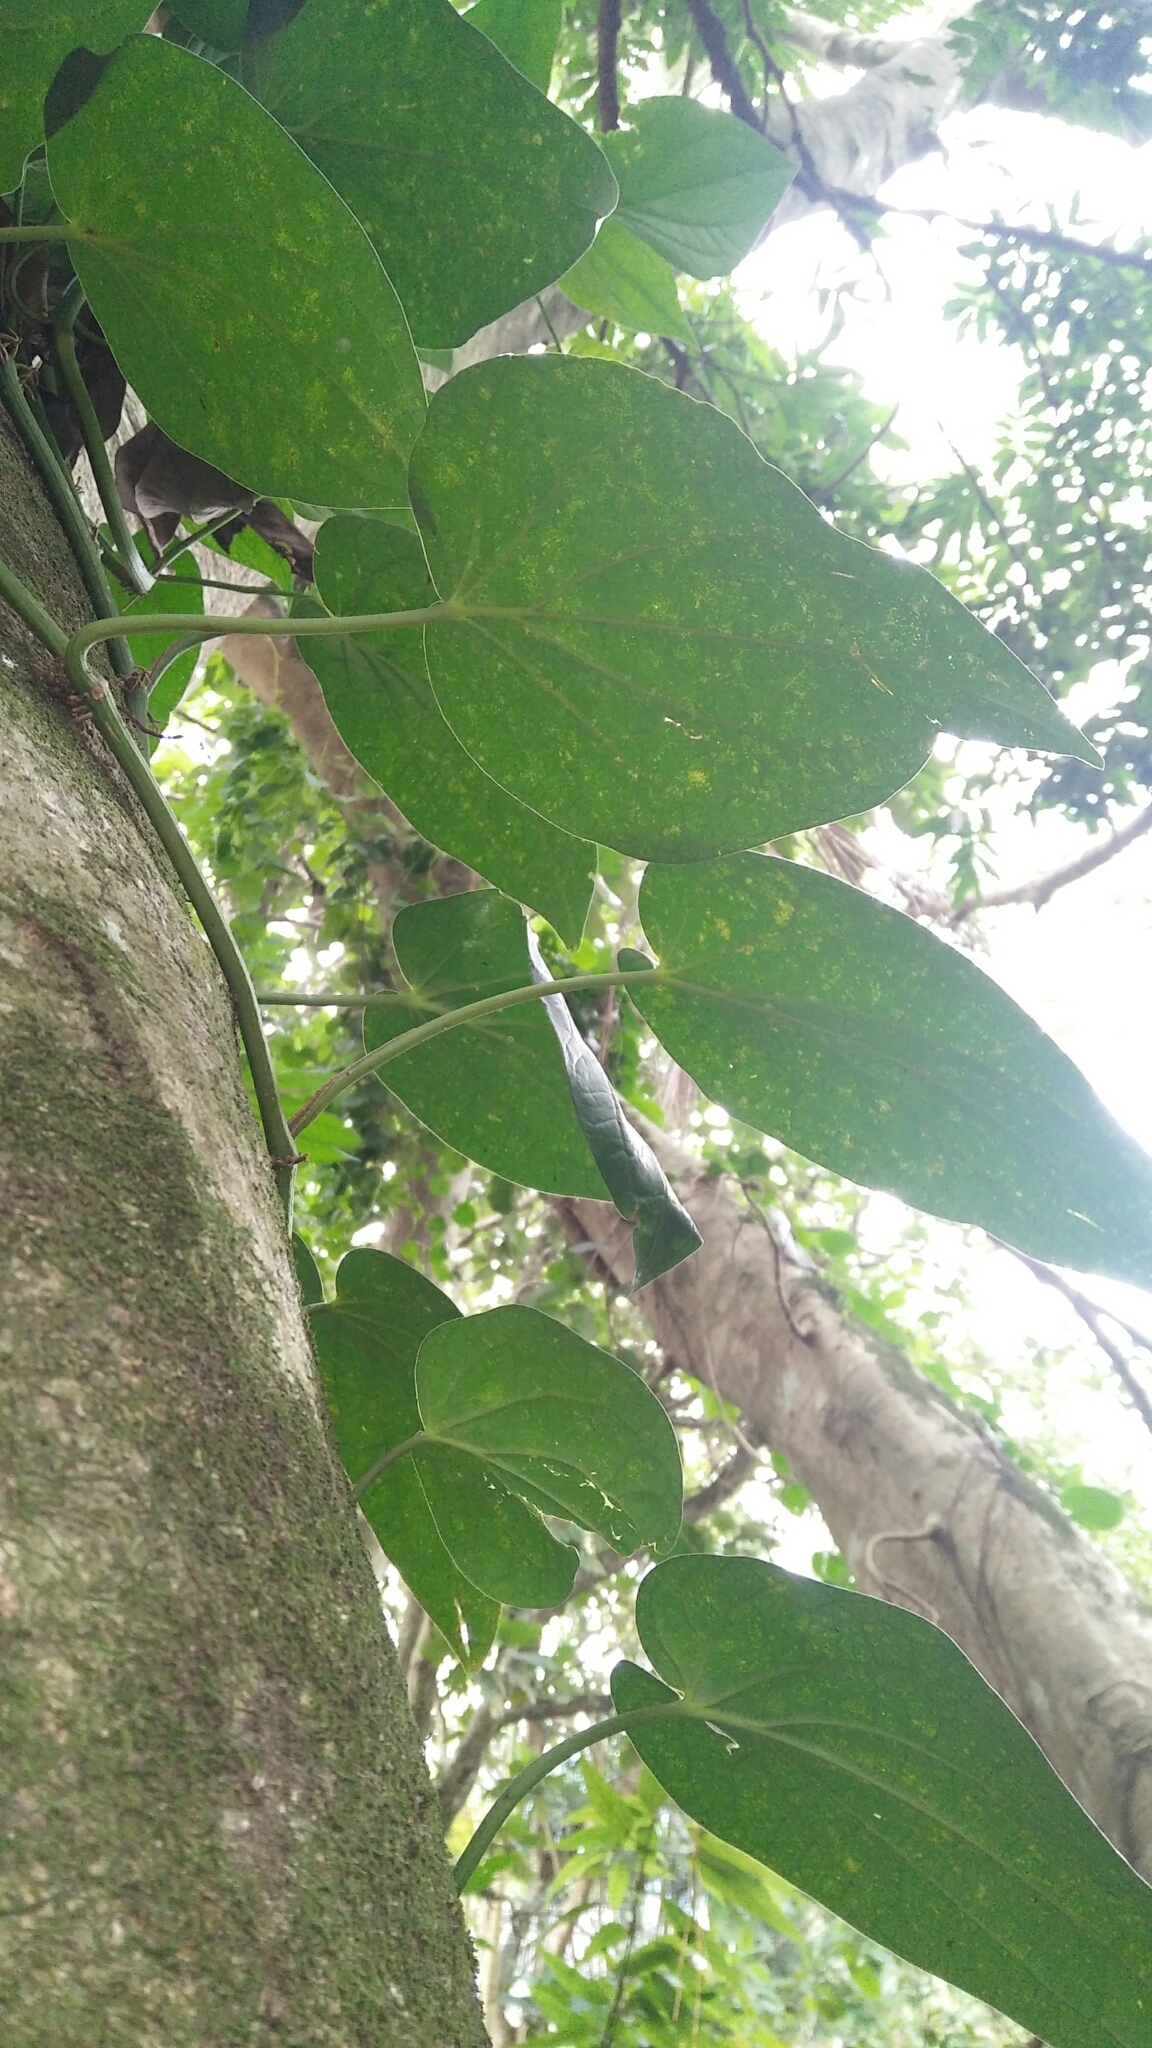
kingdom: Plantae
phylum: Tracheophyta
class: Magnoliopsida
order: Piperales
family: Piperaceae
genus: Piper
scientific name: Piper betle
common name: Betel pepper
